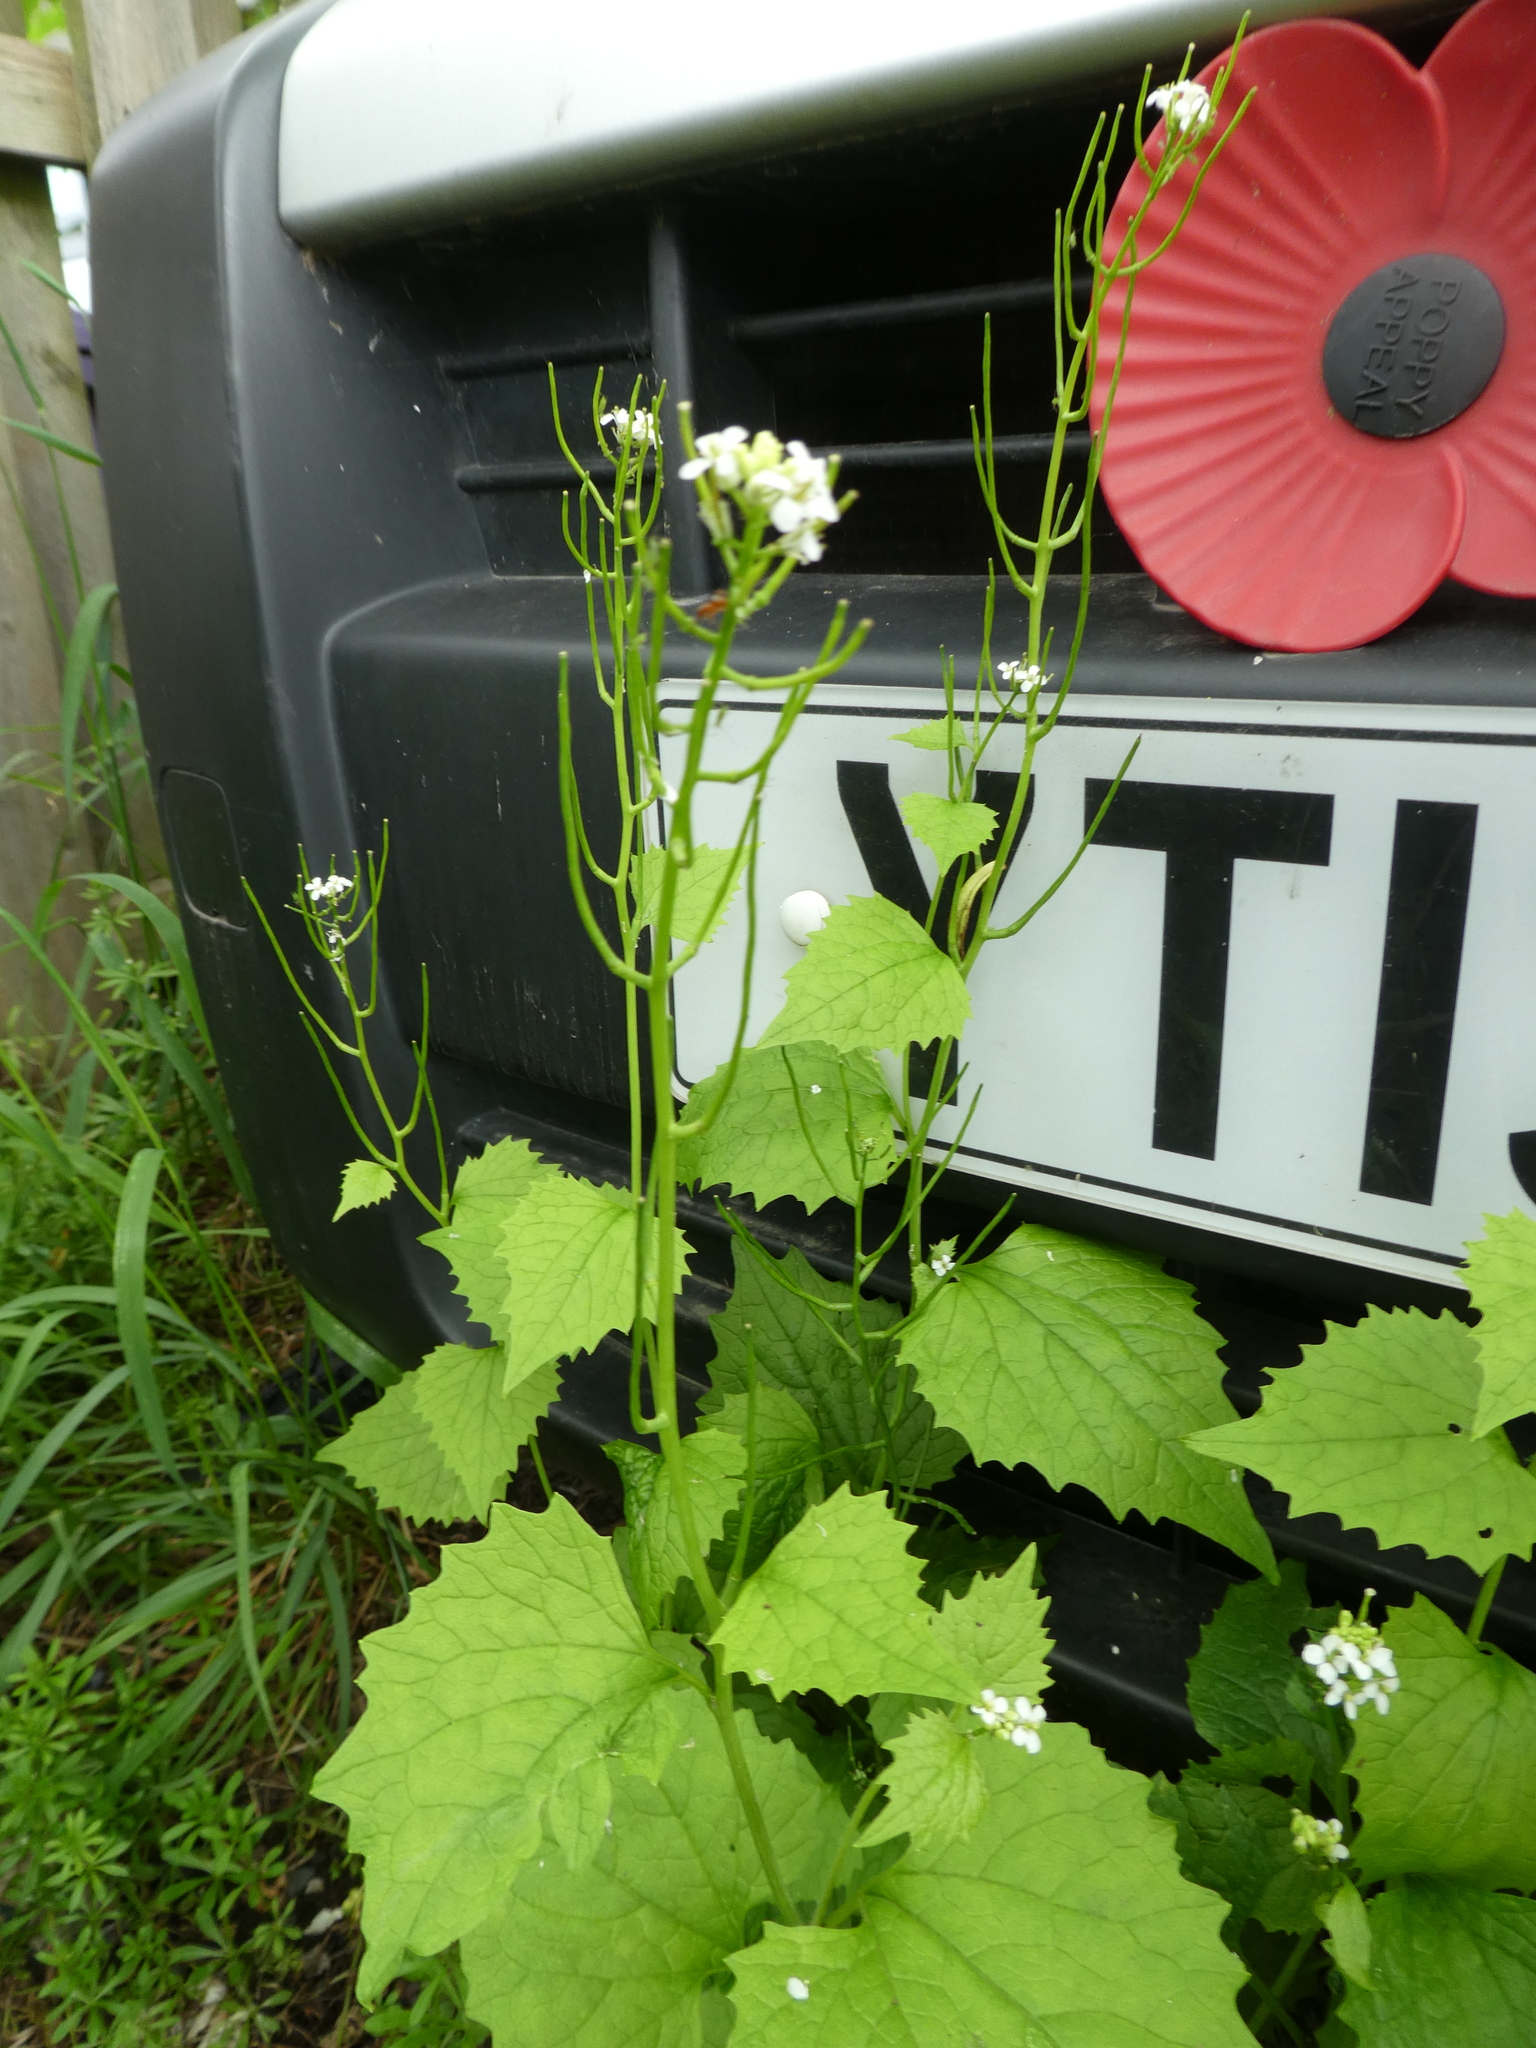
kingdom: Plantae
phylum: Tracheophyta
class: Magnoliopsida
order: Brassicales
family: Brassicaceae
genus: Alliaria
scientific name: Alliaria petiolata
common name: Garlic mustard
